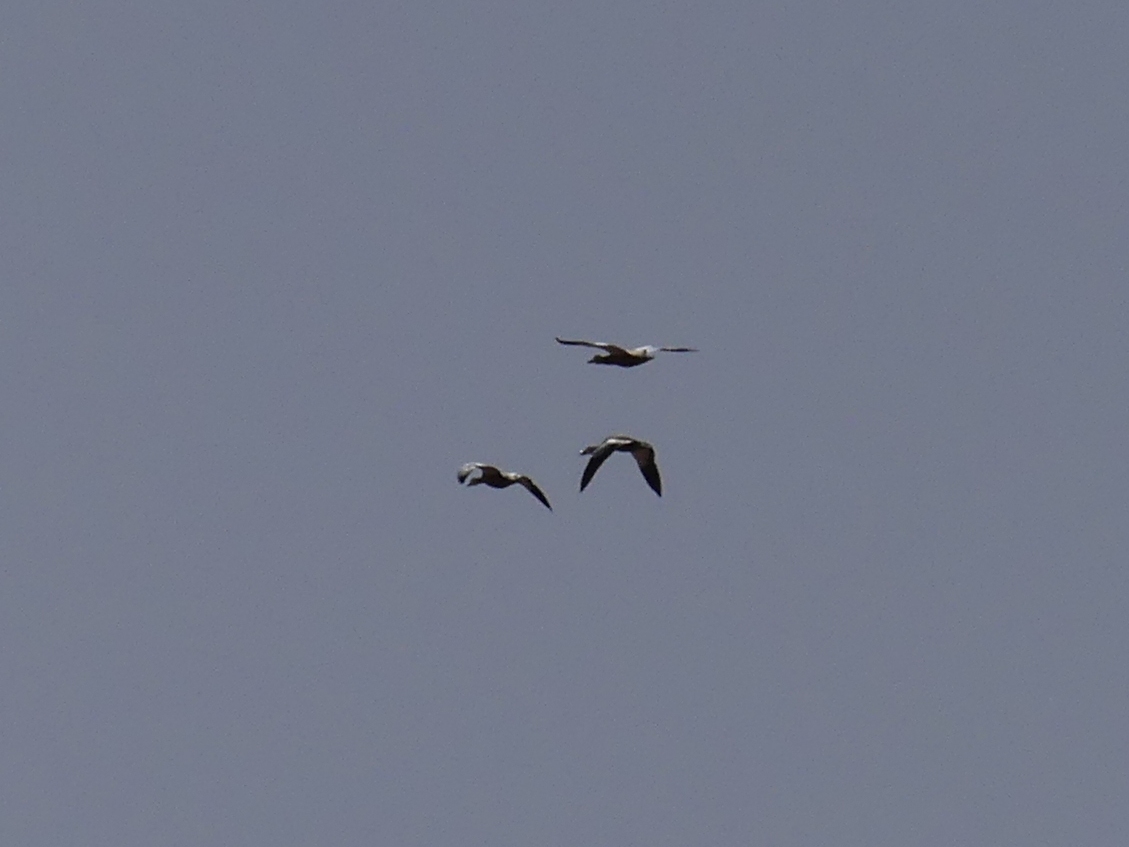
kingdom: Animalia
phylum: Chordata
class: Aves
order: Anseriformes
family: Anatidae
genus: Tadorna
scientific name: Tadorna ferruginea
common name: Ruddy shelduck
